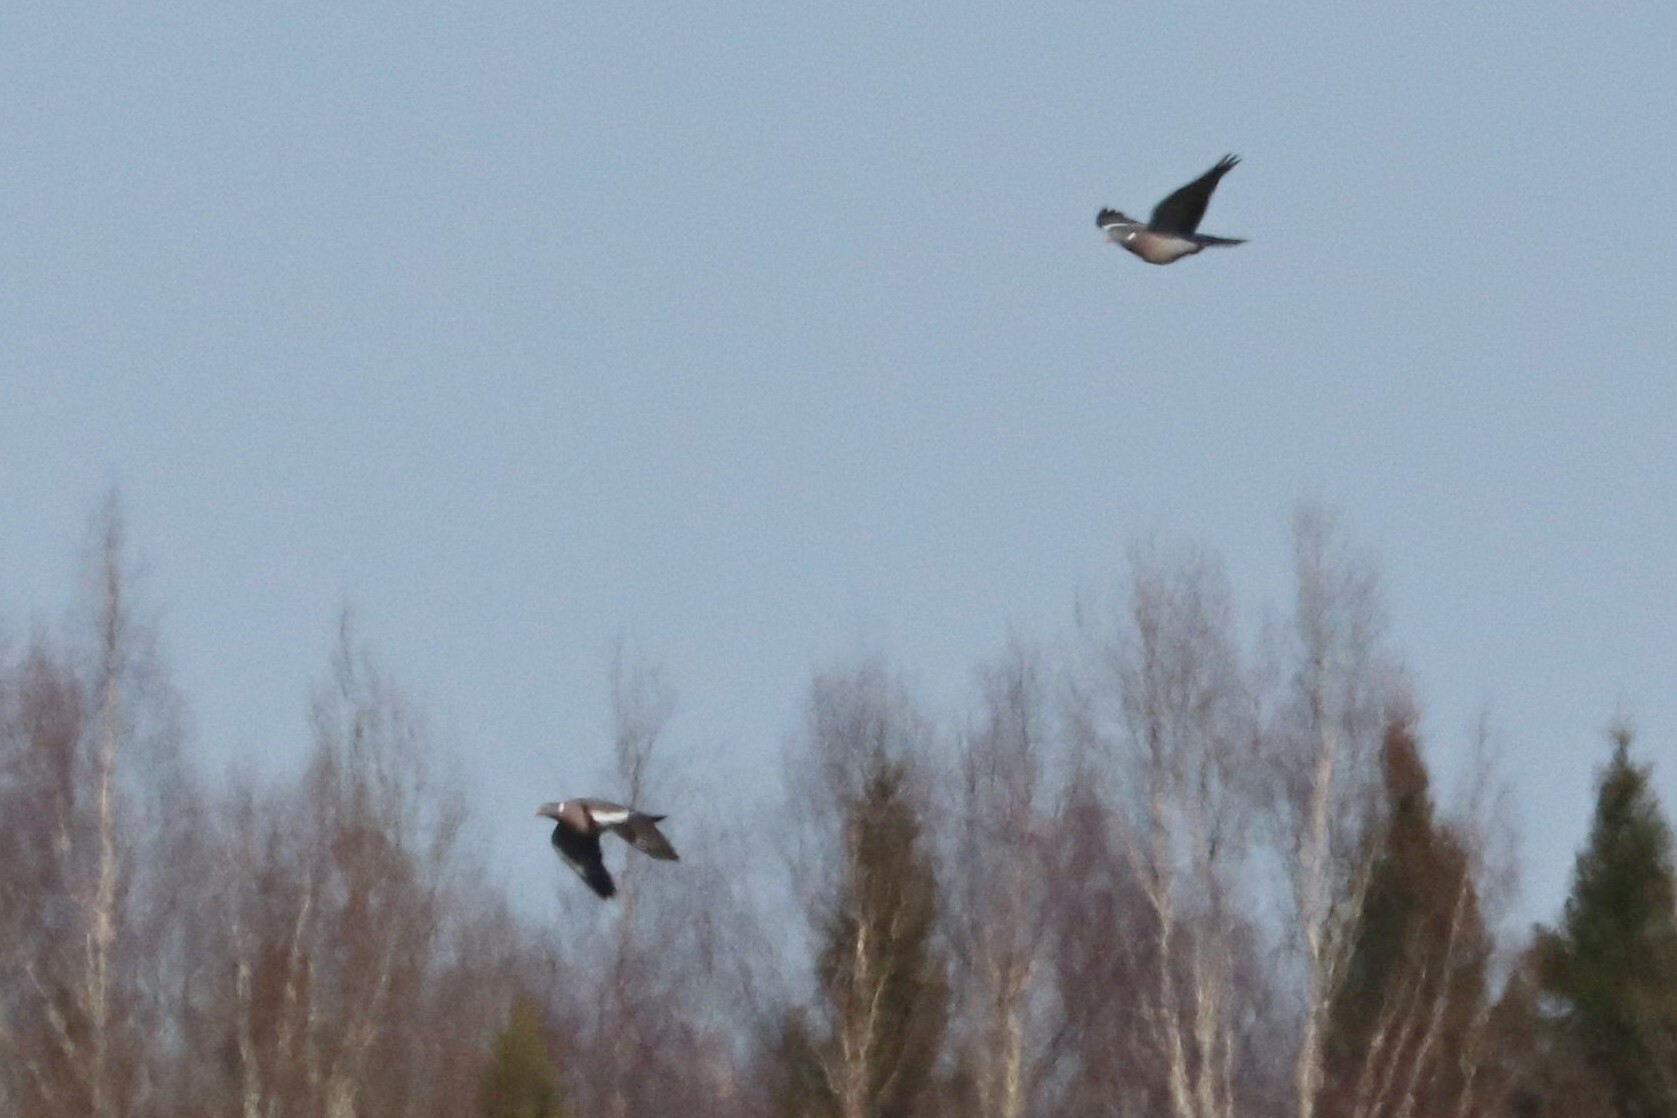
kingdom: Animalia
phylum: Chordata
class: Aves
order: Columbiformes
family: Columbidae
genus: Columba
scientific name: Columba palumbus
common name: Common wood pigeon
